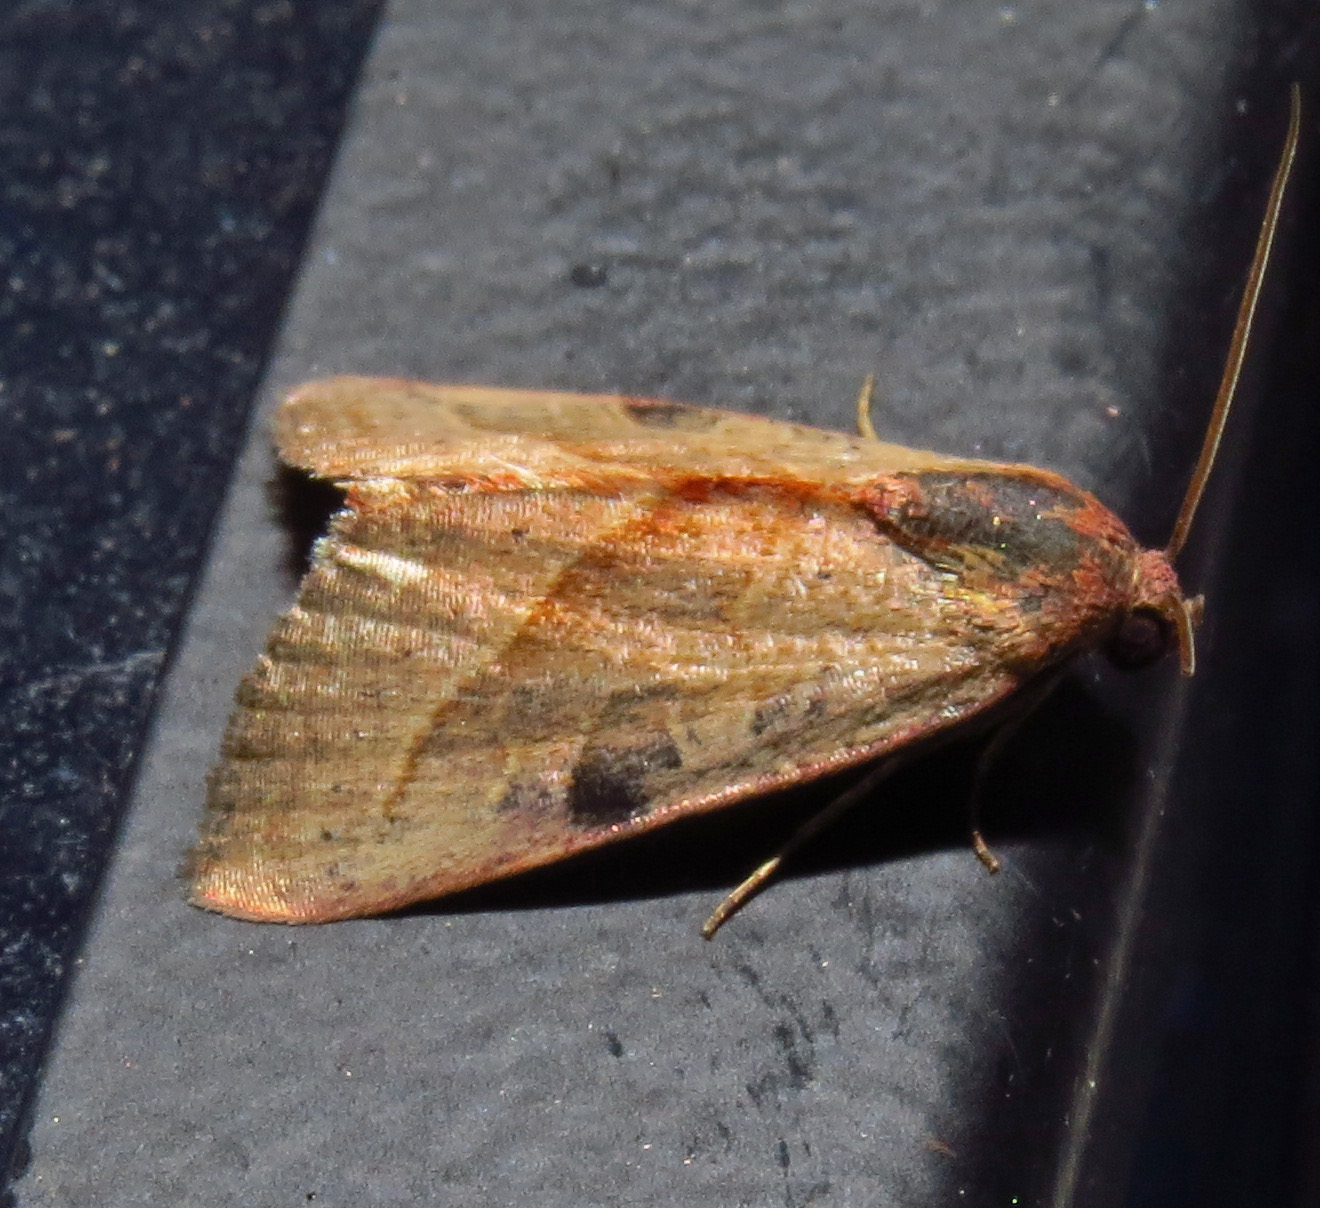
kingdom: Animalia
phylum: Arthropoda
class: Insecta
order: Lepidoptera
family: Noctuidae
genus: Galgula
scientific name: Galgula partita
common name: Wedgeling
